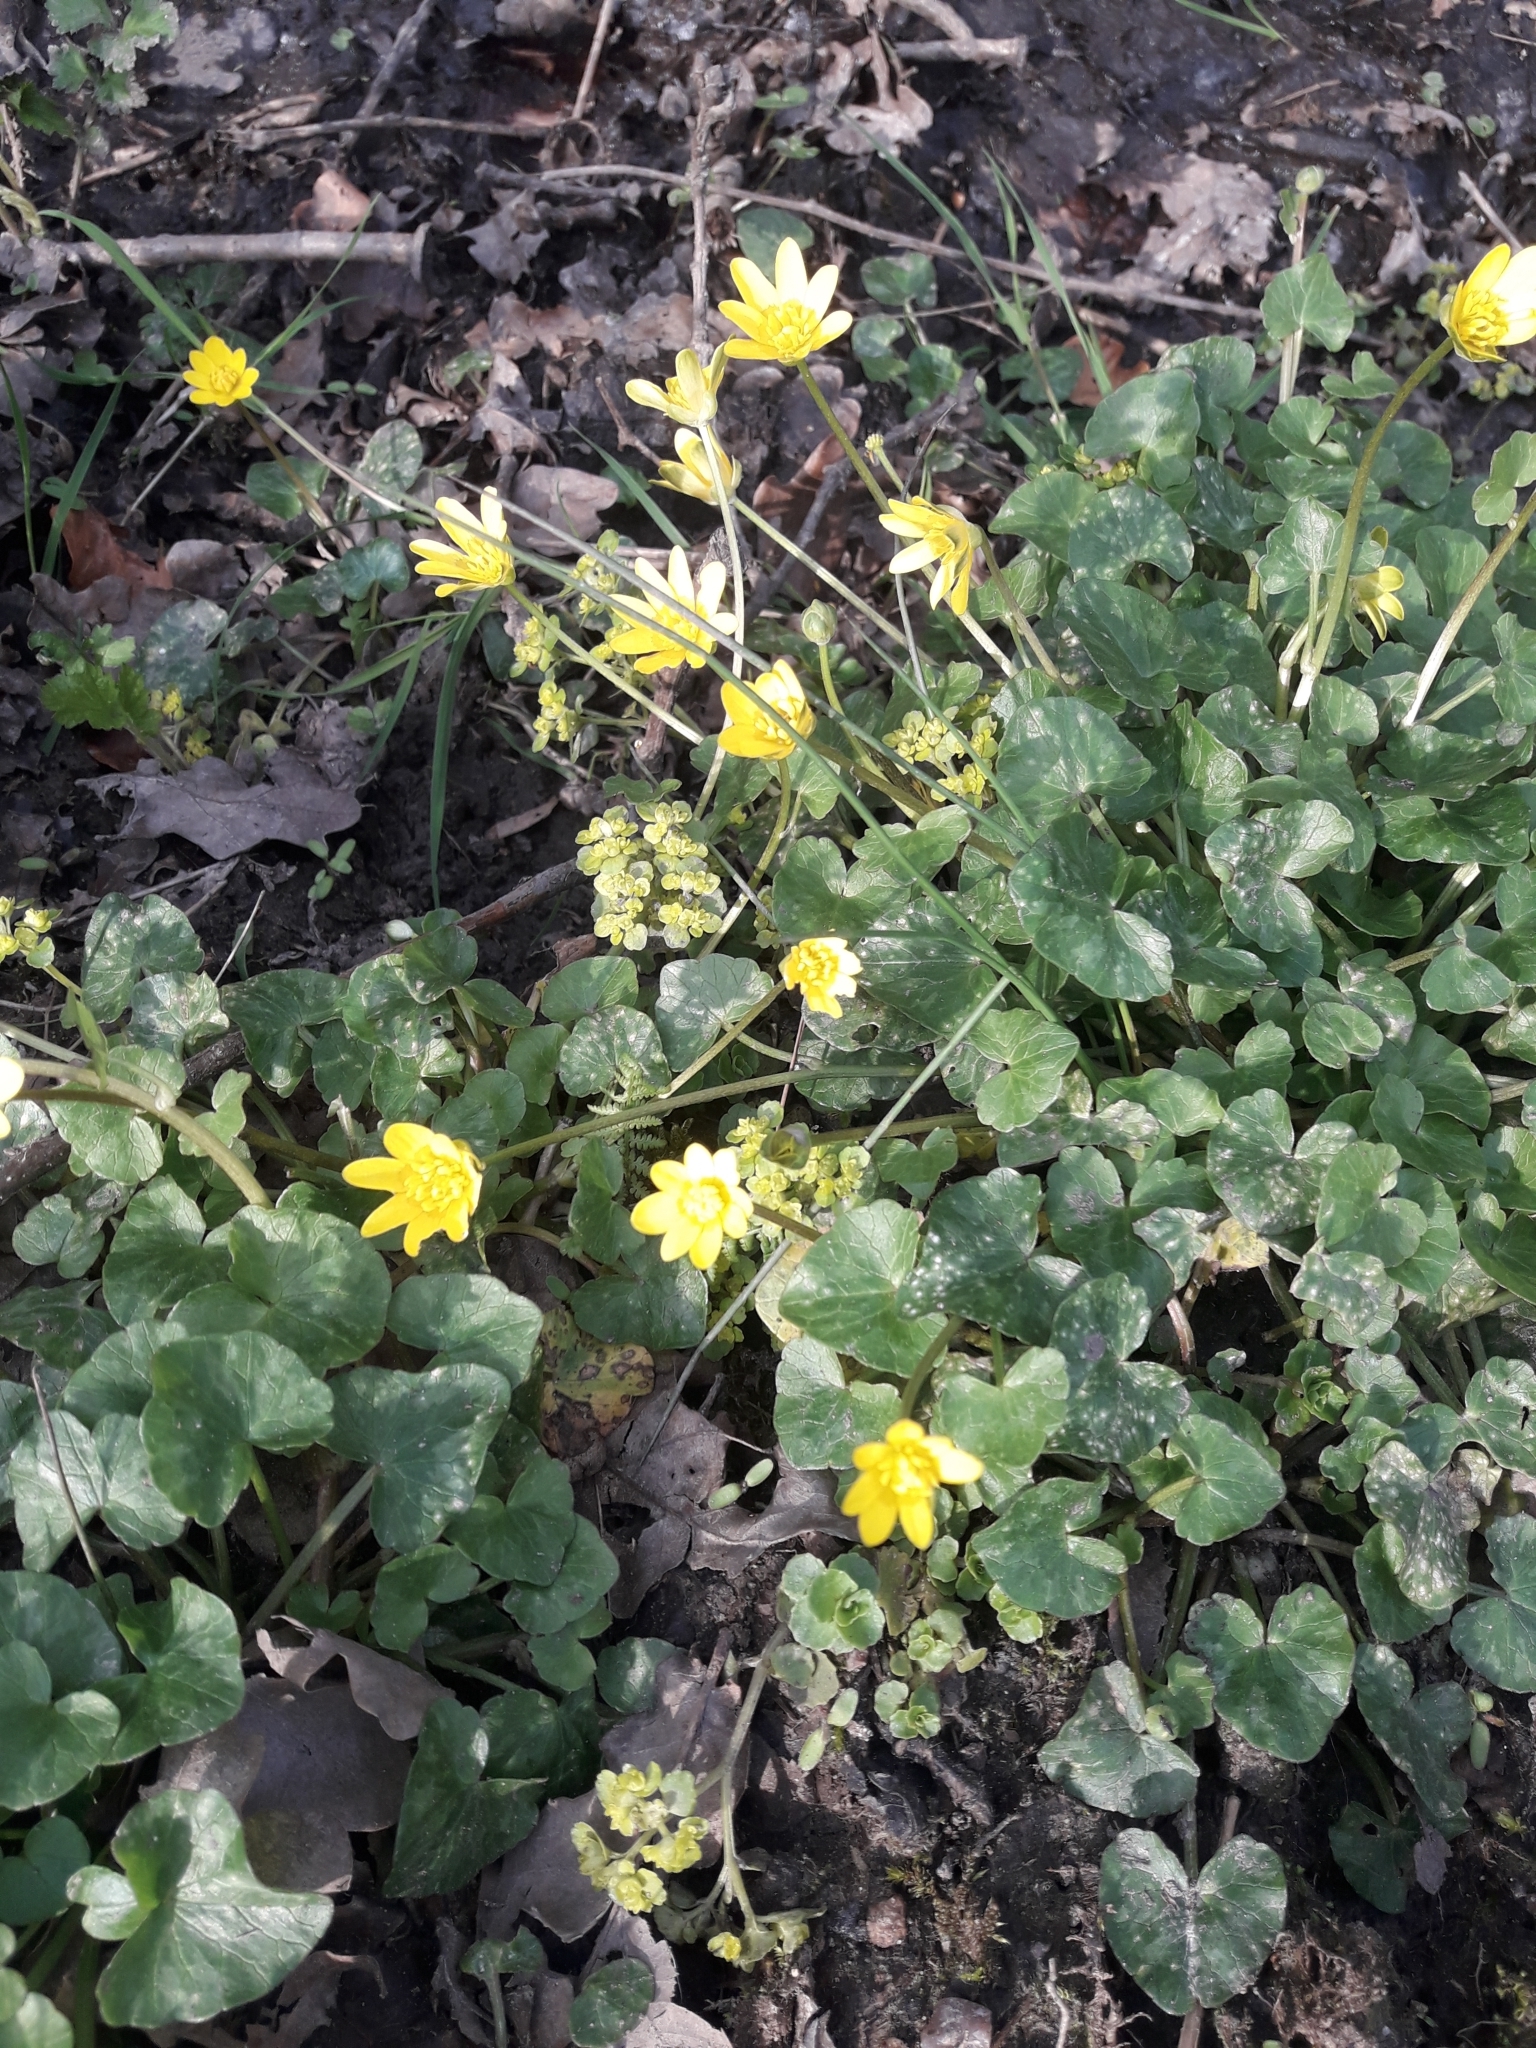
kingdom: Plantae
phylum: Tracheophyta
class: Magnoliopsida
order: Ranunculales
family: Ranunculaceae
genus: Ficaria
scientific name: Ficaria verna
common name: Lesser celandine
